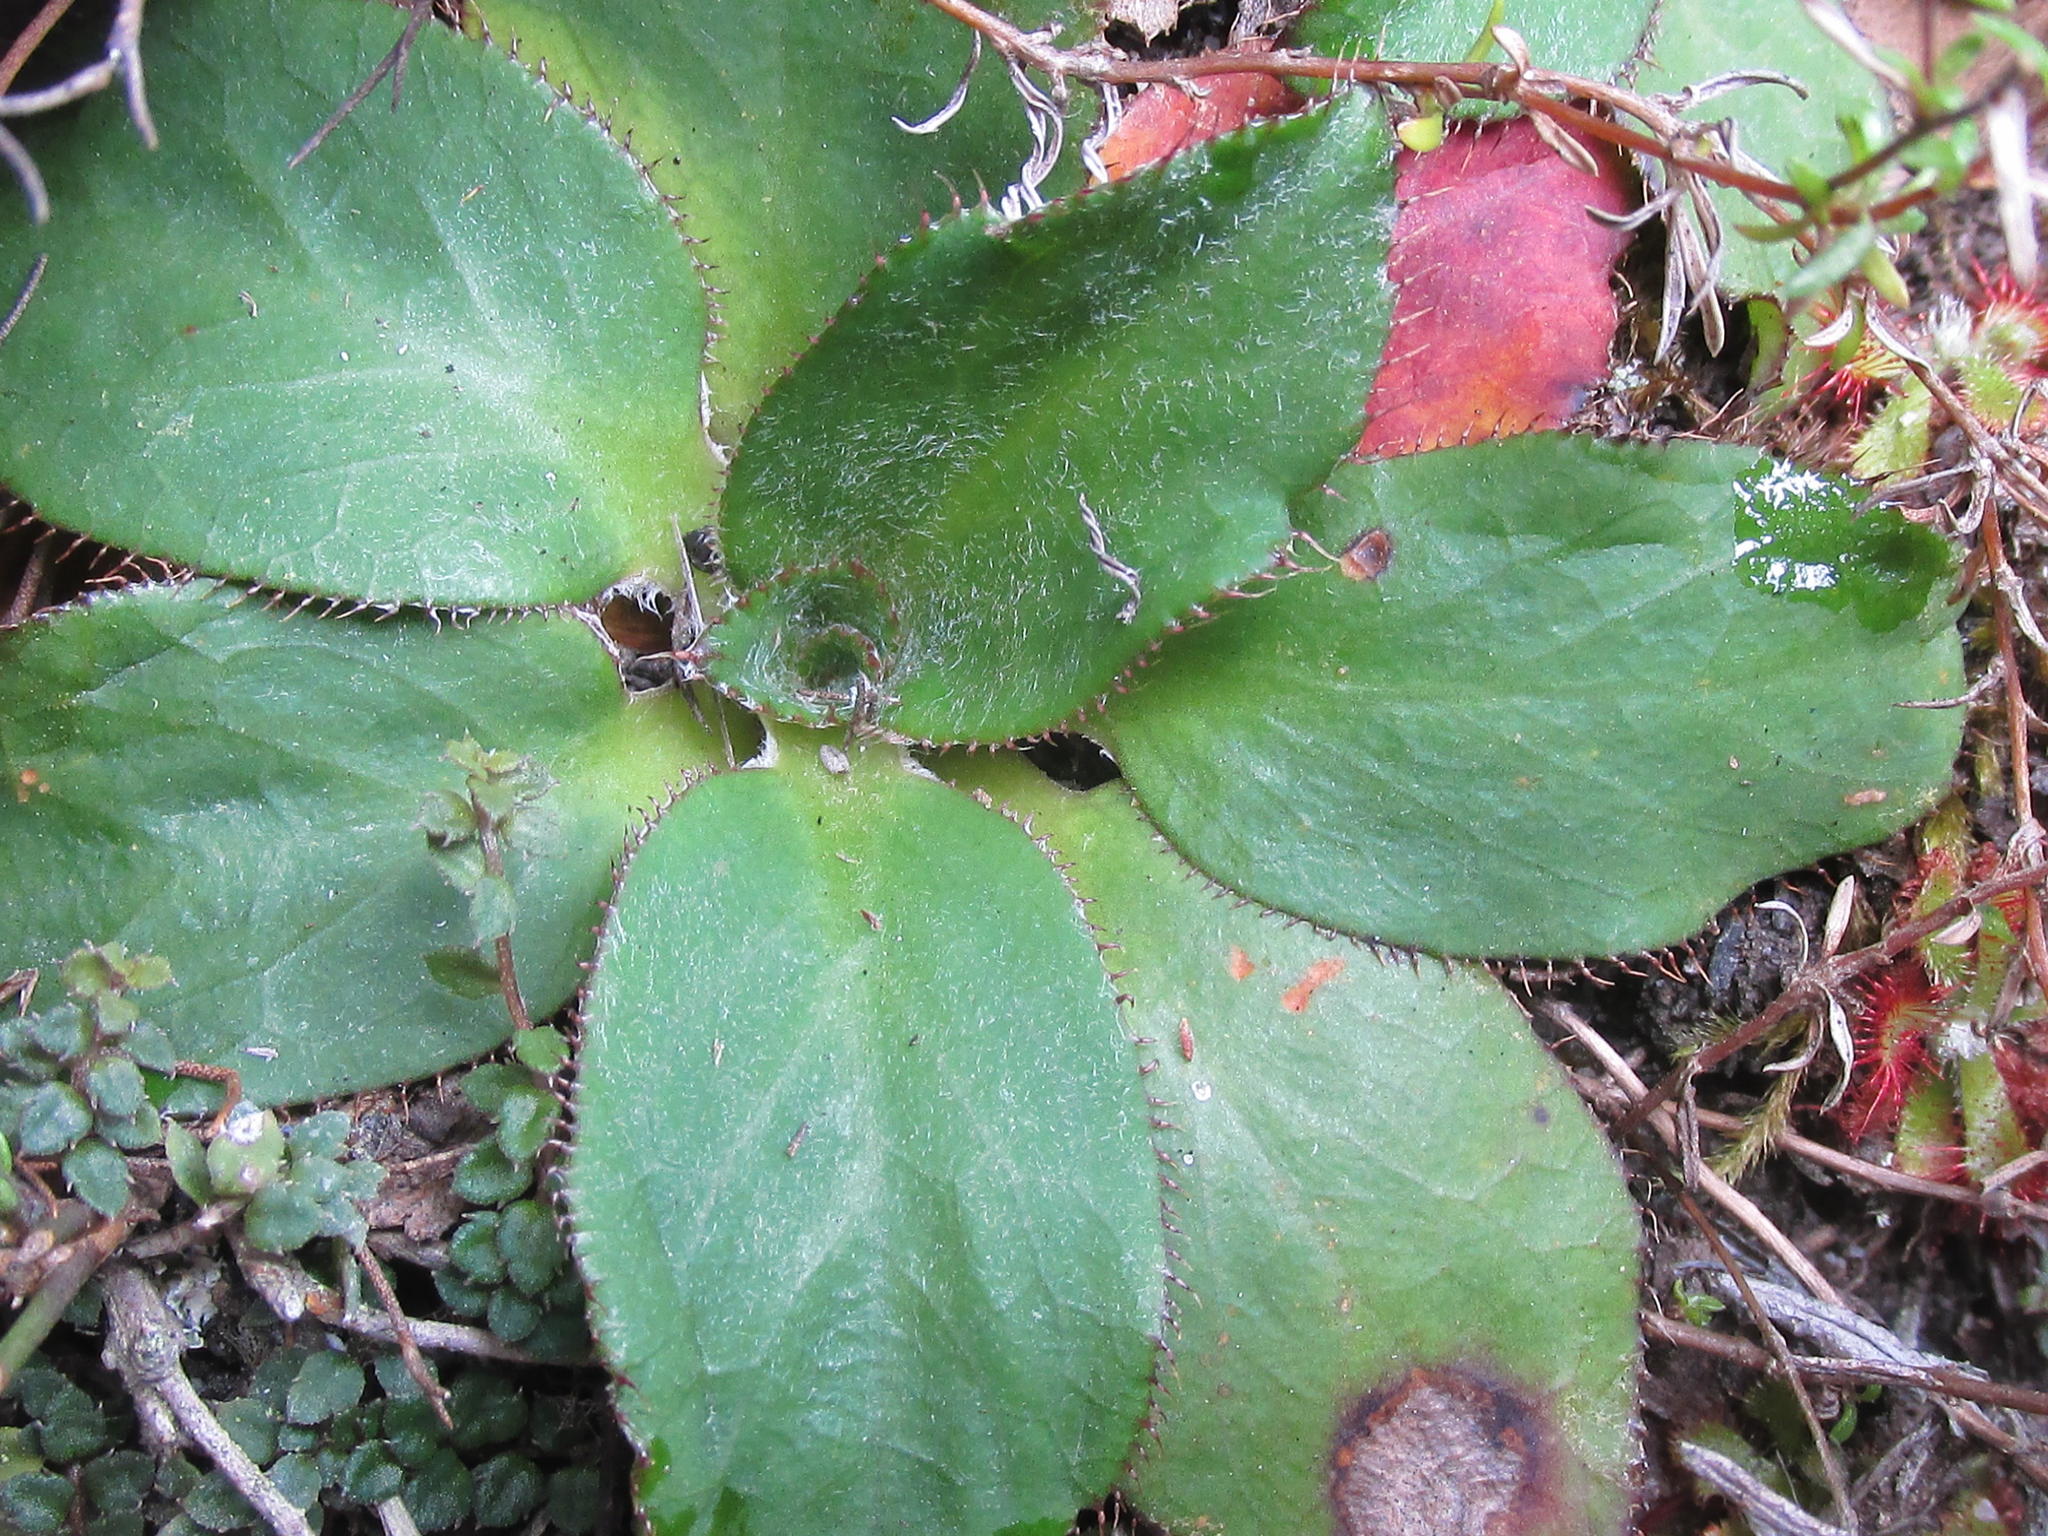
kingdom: Plantae
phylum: Tracheophyta
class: Magnoliopsida
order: Apiales
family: Apiaceae
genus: Hermas
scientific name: Hermas ciliata
